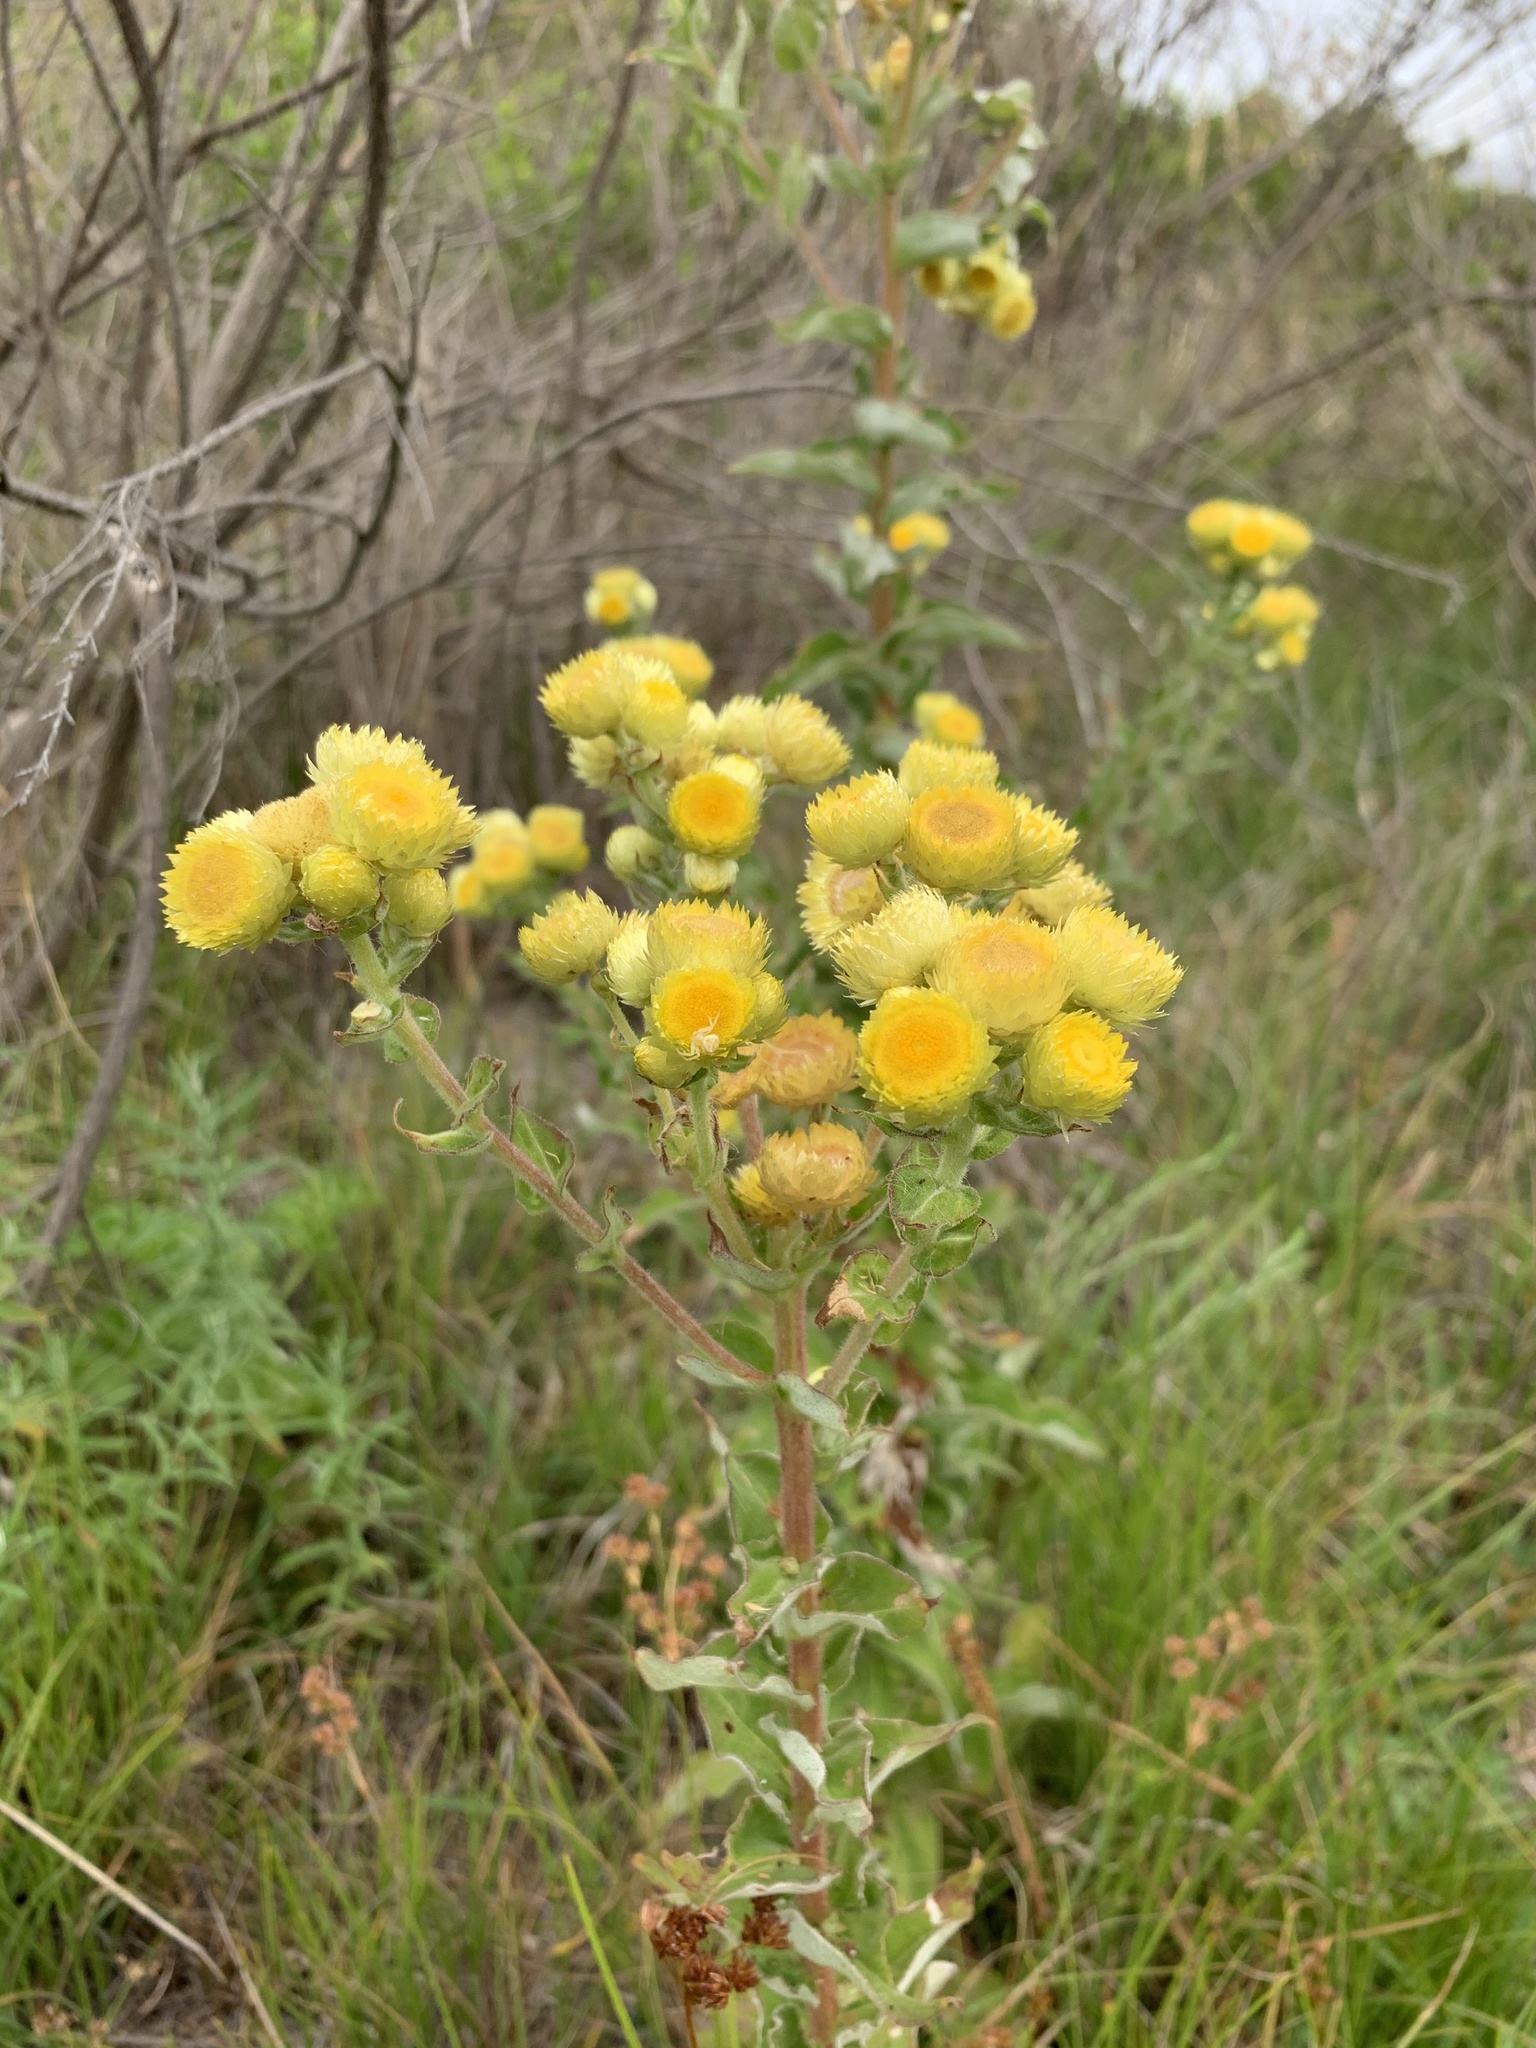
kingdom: Plantae
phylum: Tracheophyta
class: Magnoliopsida
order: Asterales
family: Asteraceae
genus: Helichrysum
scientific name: Helichrysum foetidum
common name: Stinking everlasting
